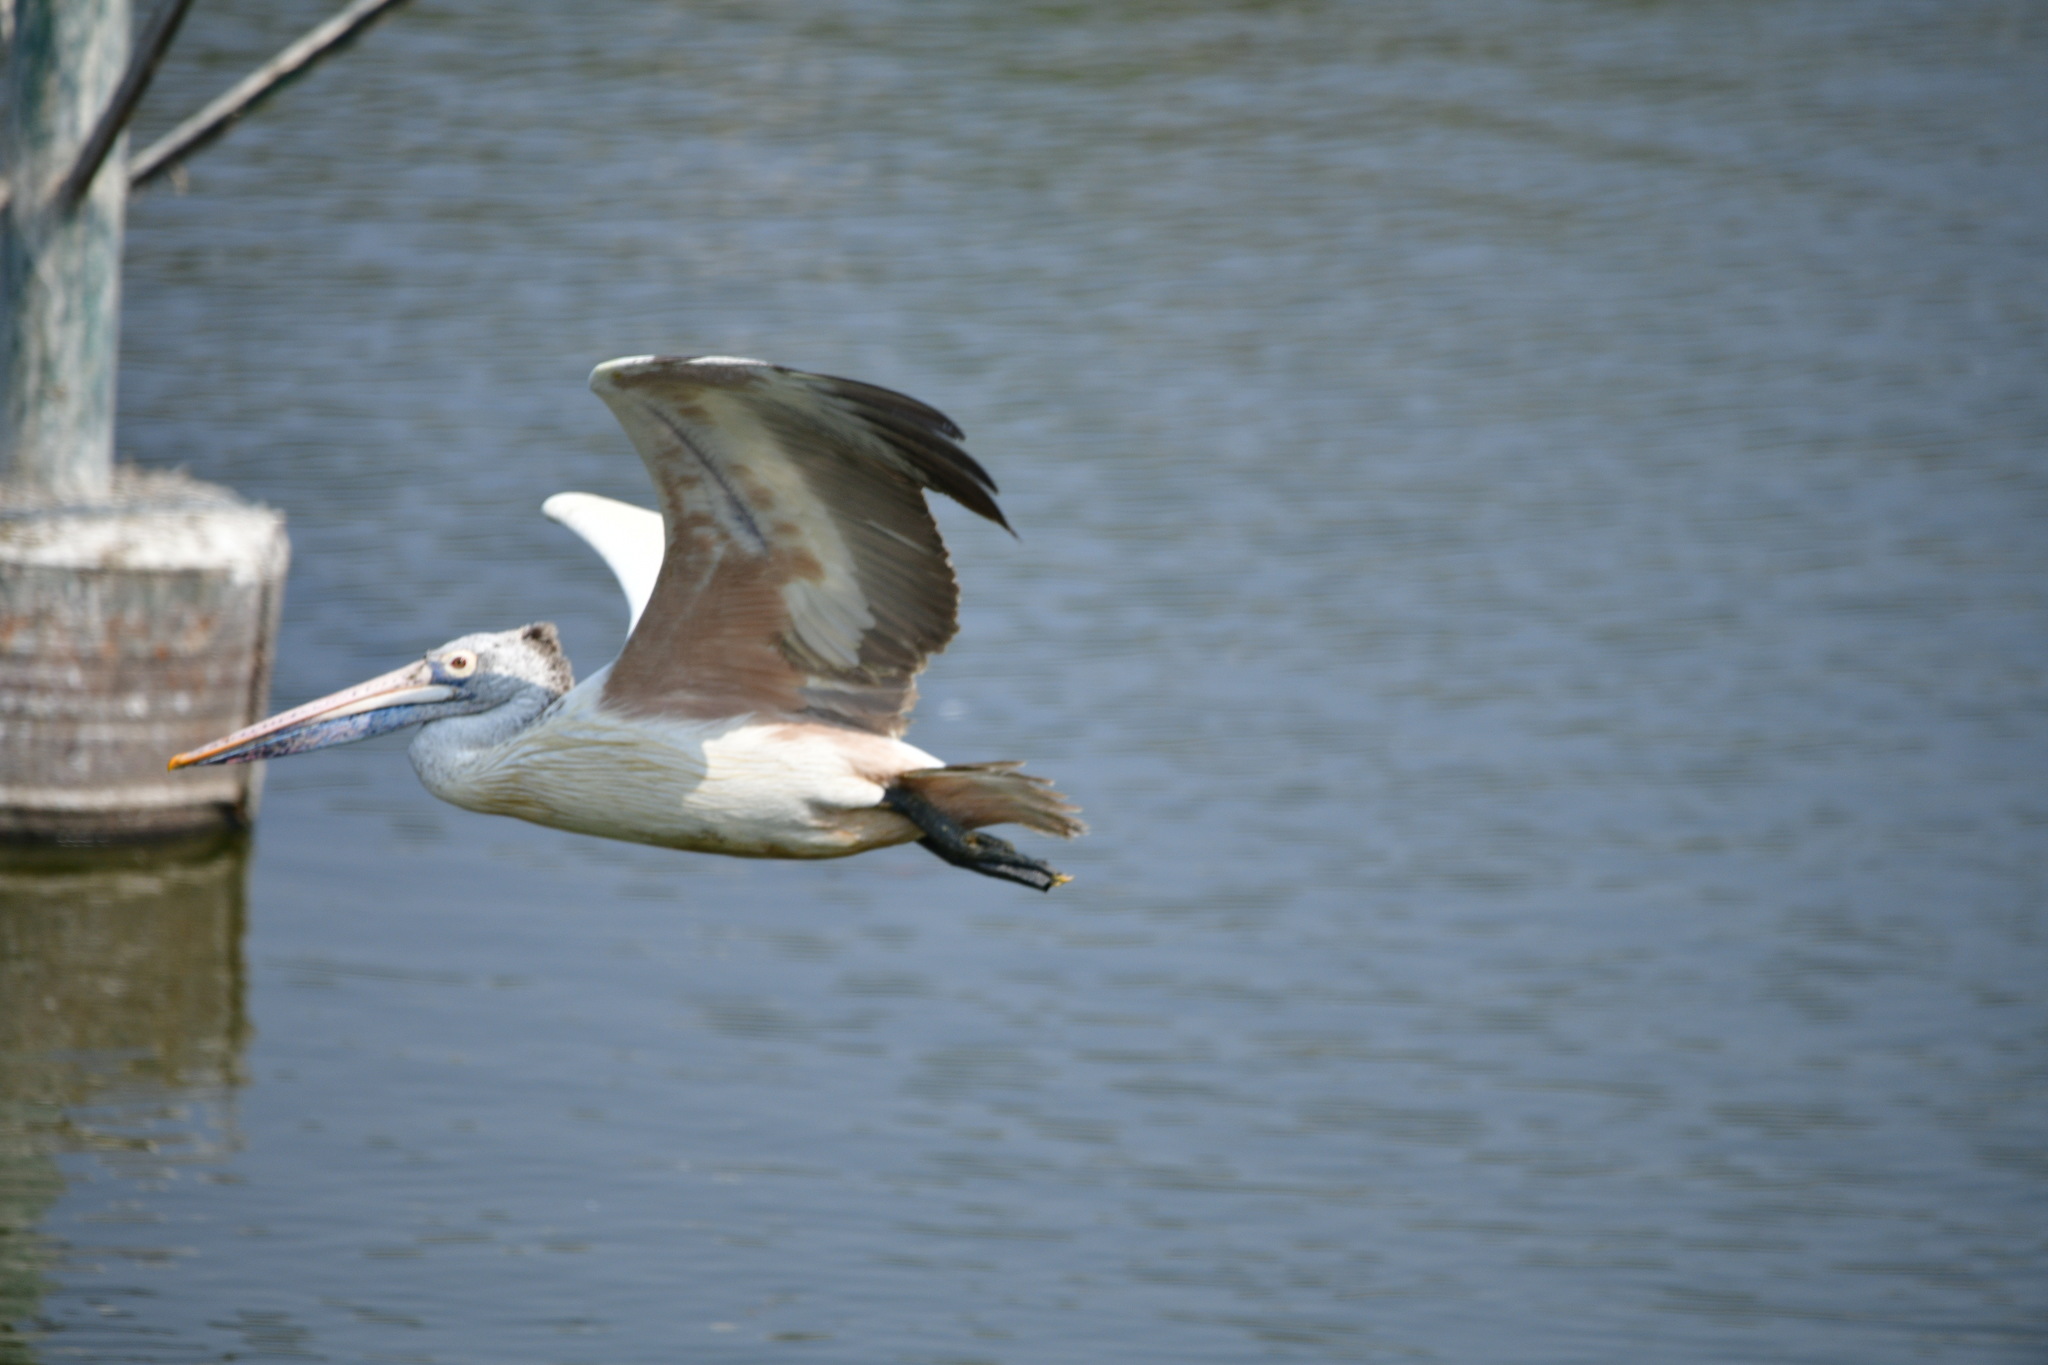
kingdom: Animalia
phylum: Chordata
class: Aves
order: Pelecaniformes
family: Pelecanidae
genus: Pelecanus
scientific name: Pelecanus philippensis
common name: Spot-billed pelican
